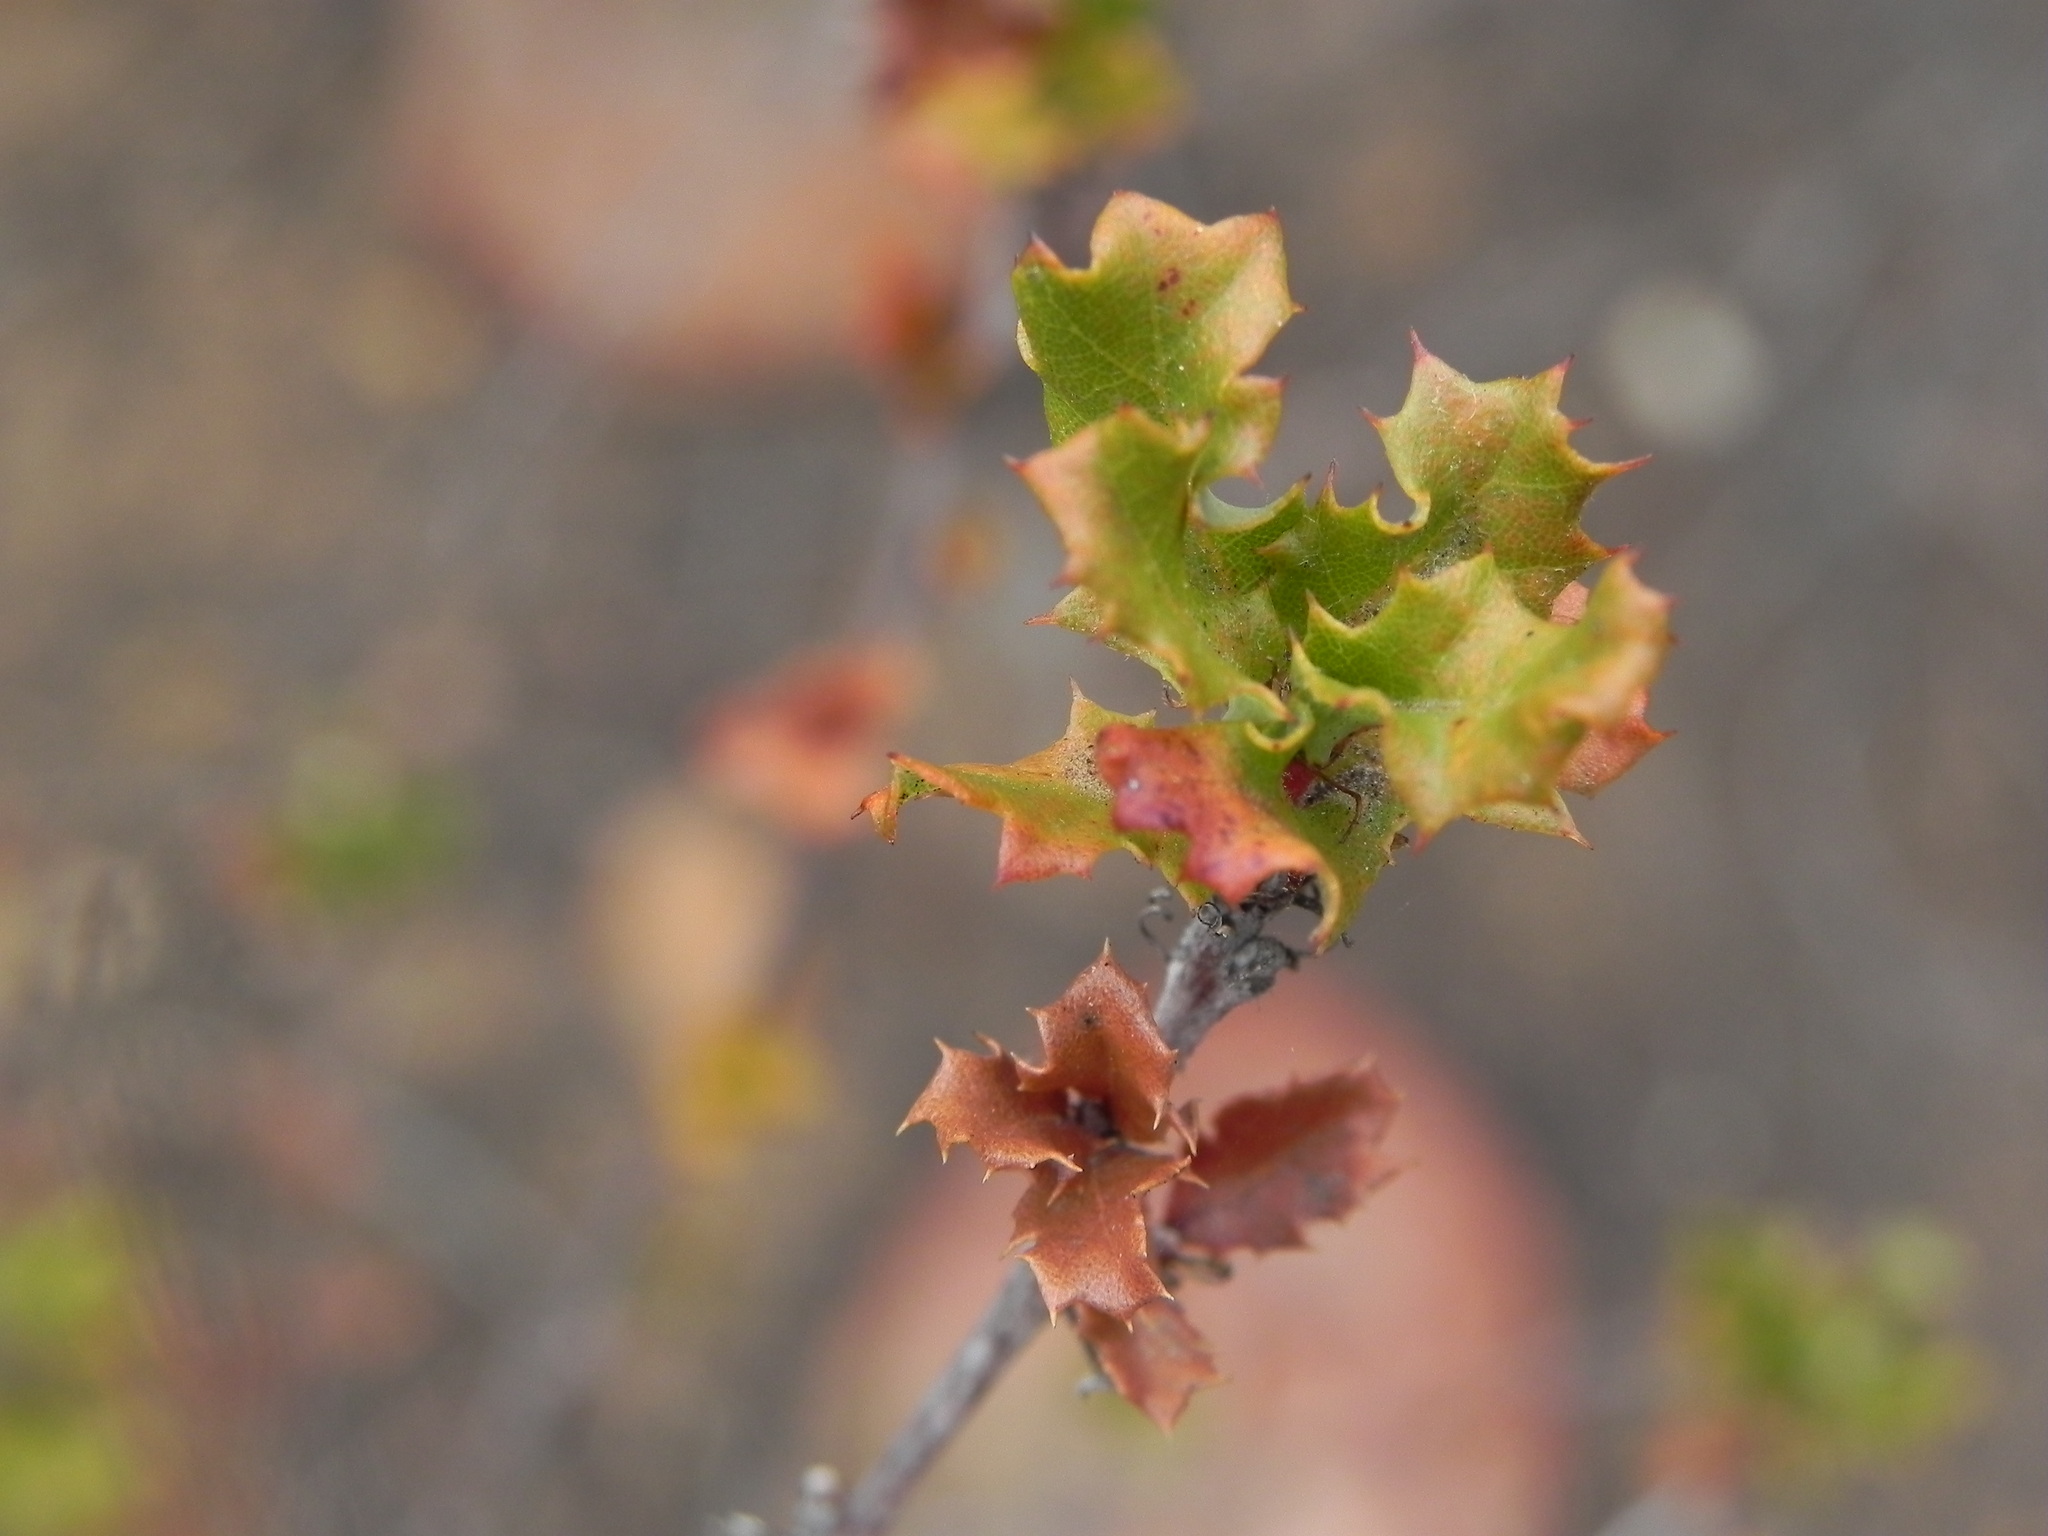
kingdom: Plantae
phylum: Tracheophyta
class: Magnoliopsida
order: Fagales
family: Fagaceae
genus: Quercus
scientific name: Quercus dumosa
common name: Coastal sage scrub oak
